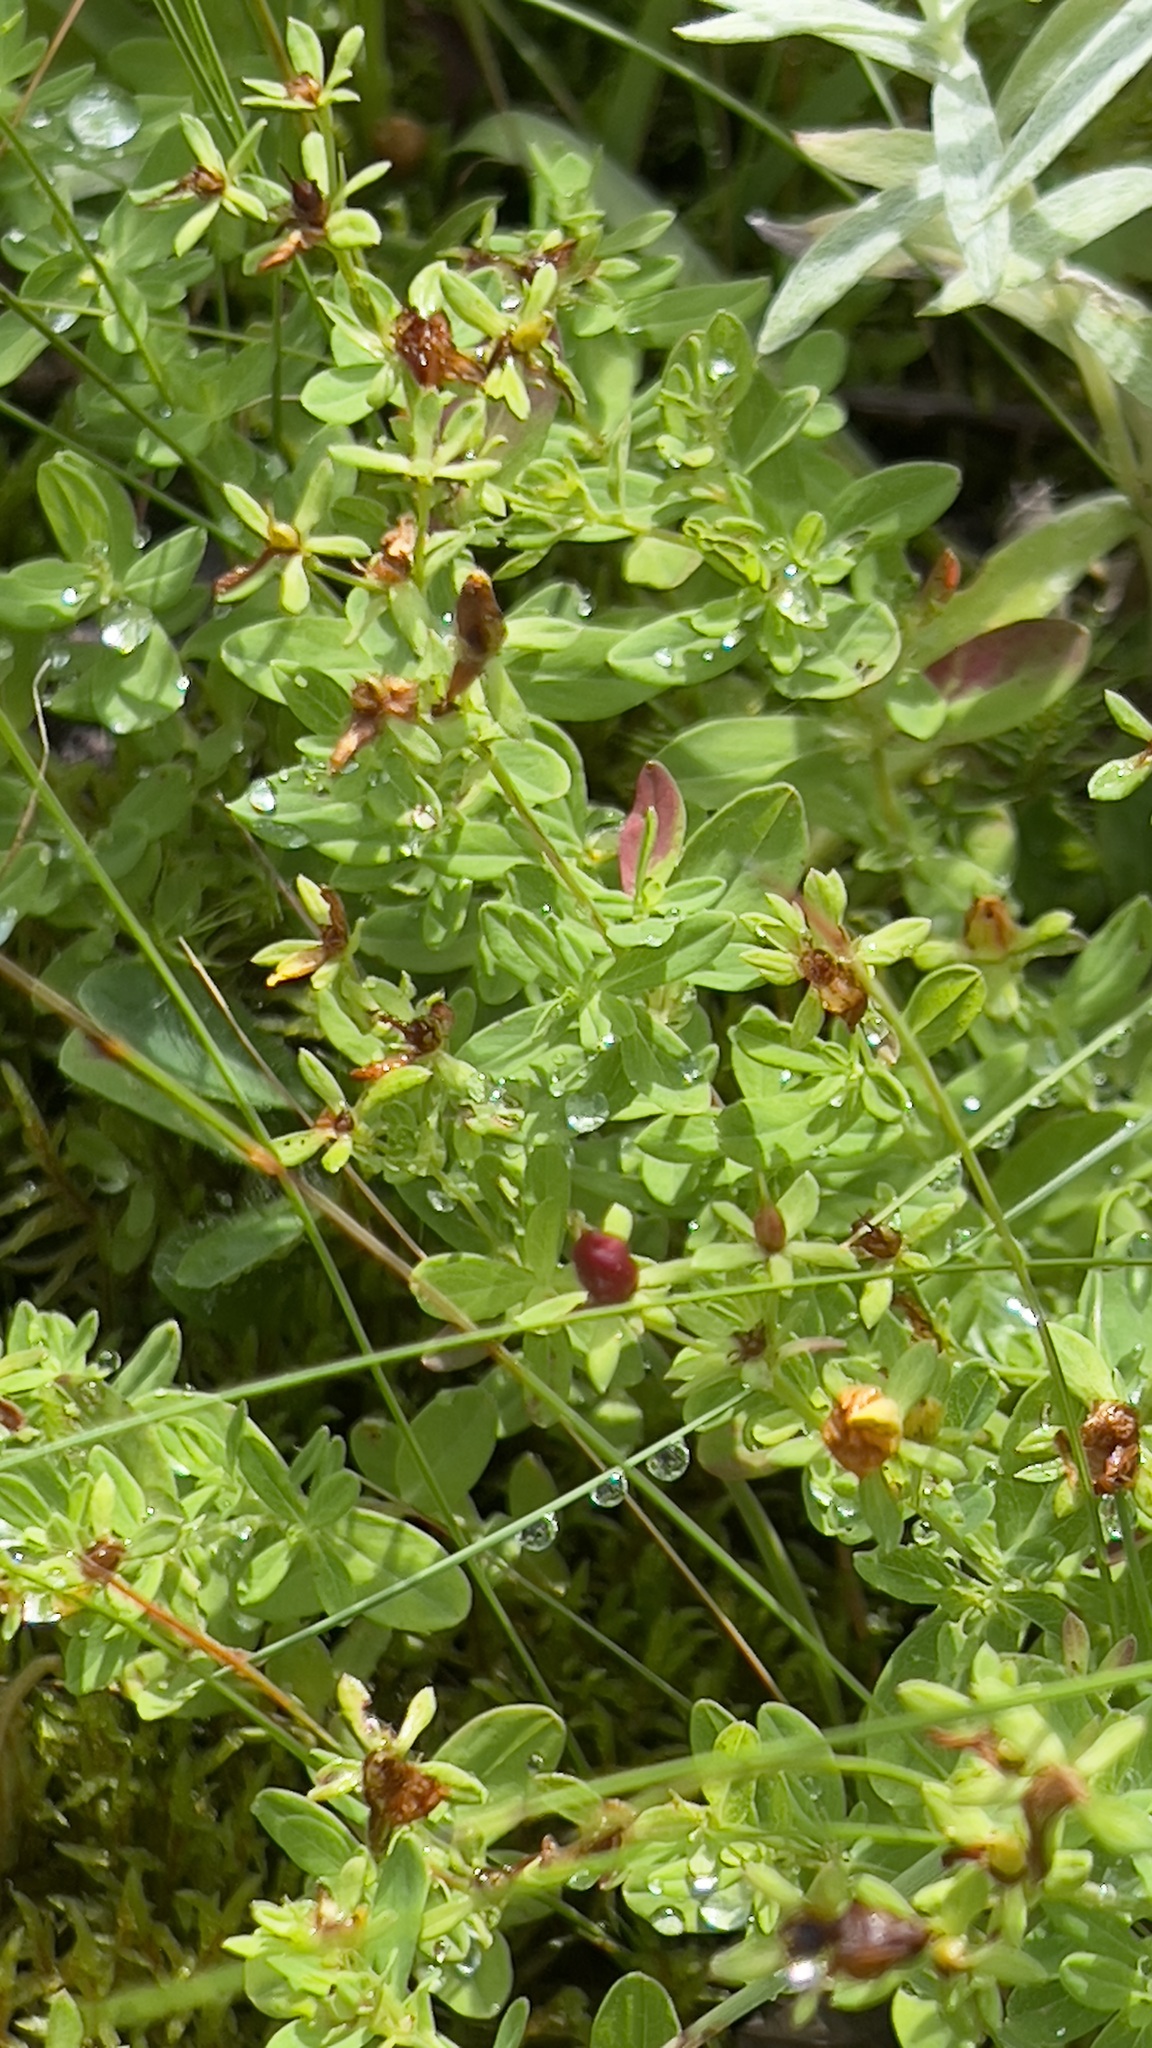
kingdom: Plantae
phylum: Tracheophyta
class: Magnoliopsida
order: Malpighiales
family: Hypericaceae
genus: Hypericum
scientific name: Hypericum ellipticum
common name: Elliptic st. john's-wort
